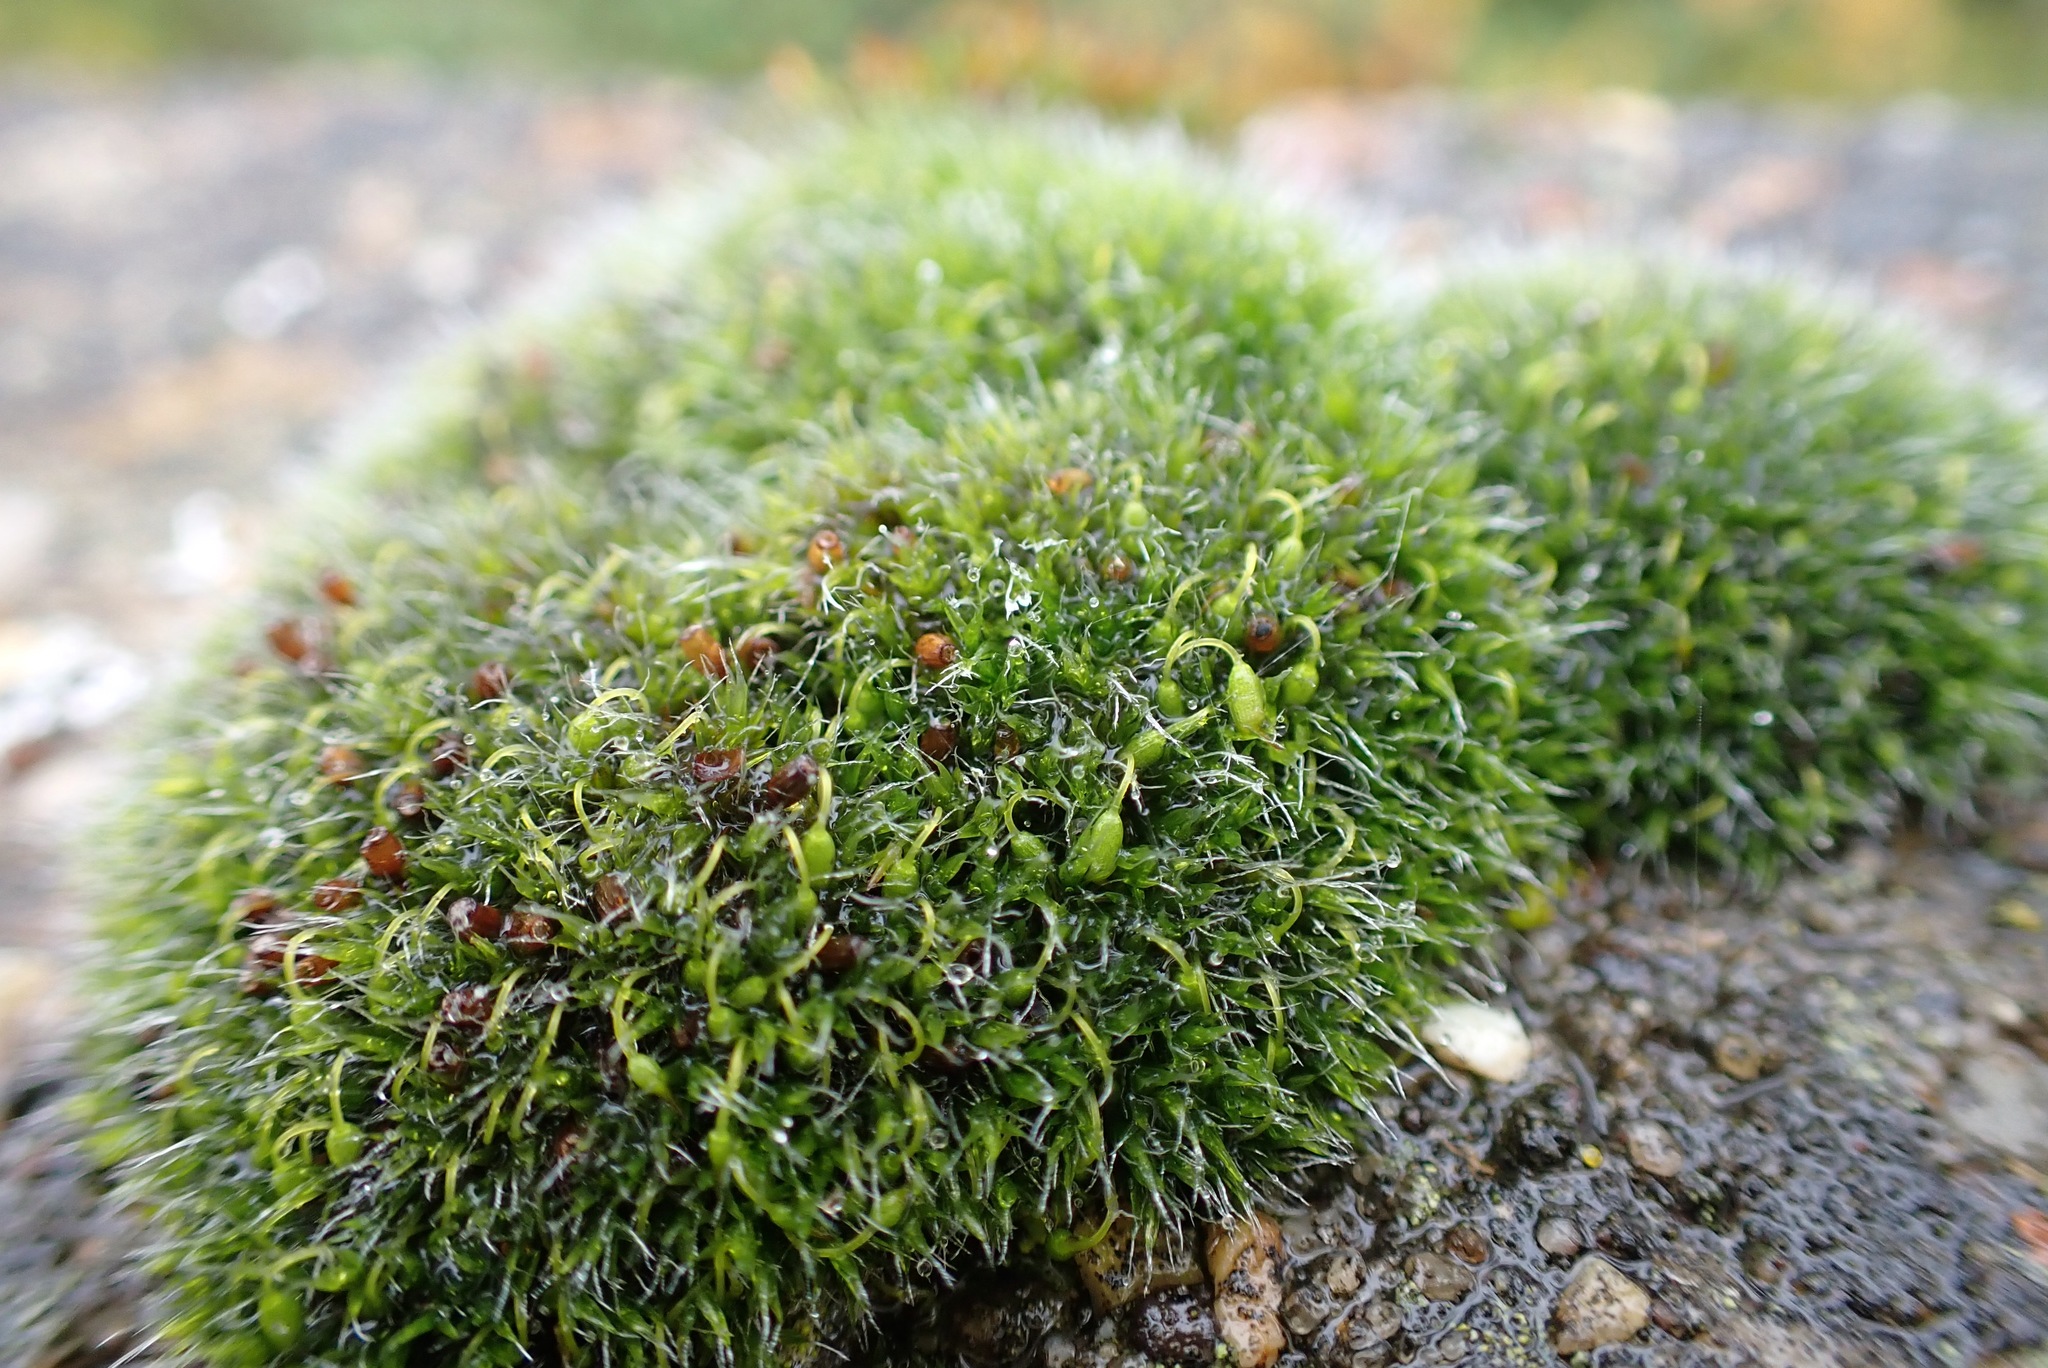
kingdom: Plantae
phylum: Bryophyta
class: Bryopsida
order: Grimmiales
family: Grimmiaceae
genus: Grimmia
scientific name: Grimmia pulvinata
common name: Grey-cushioned grimmia
